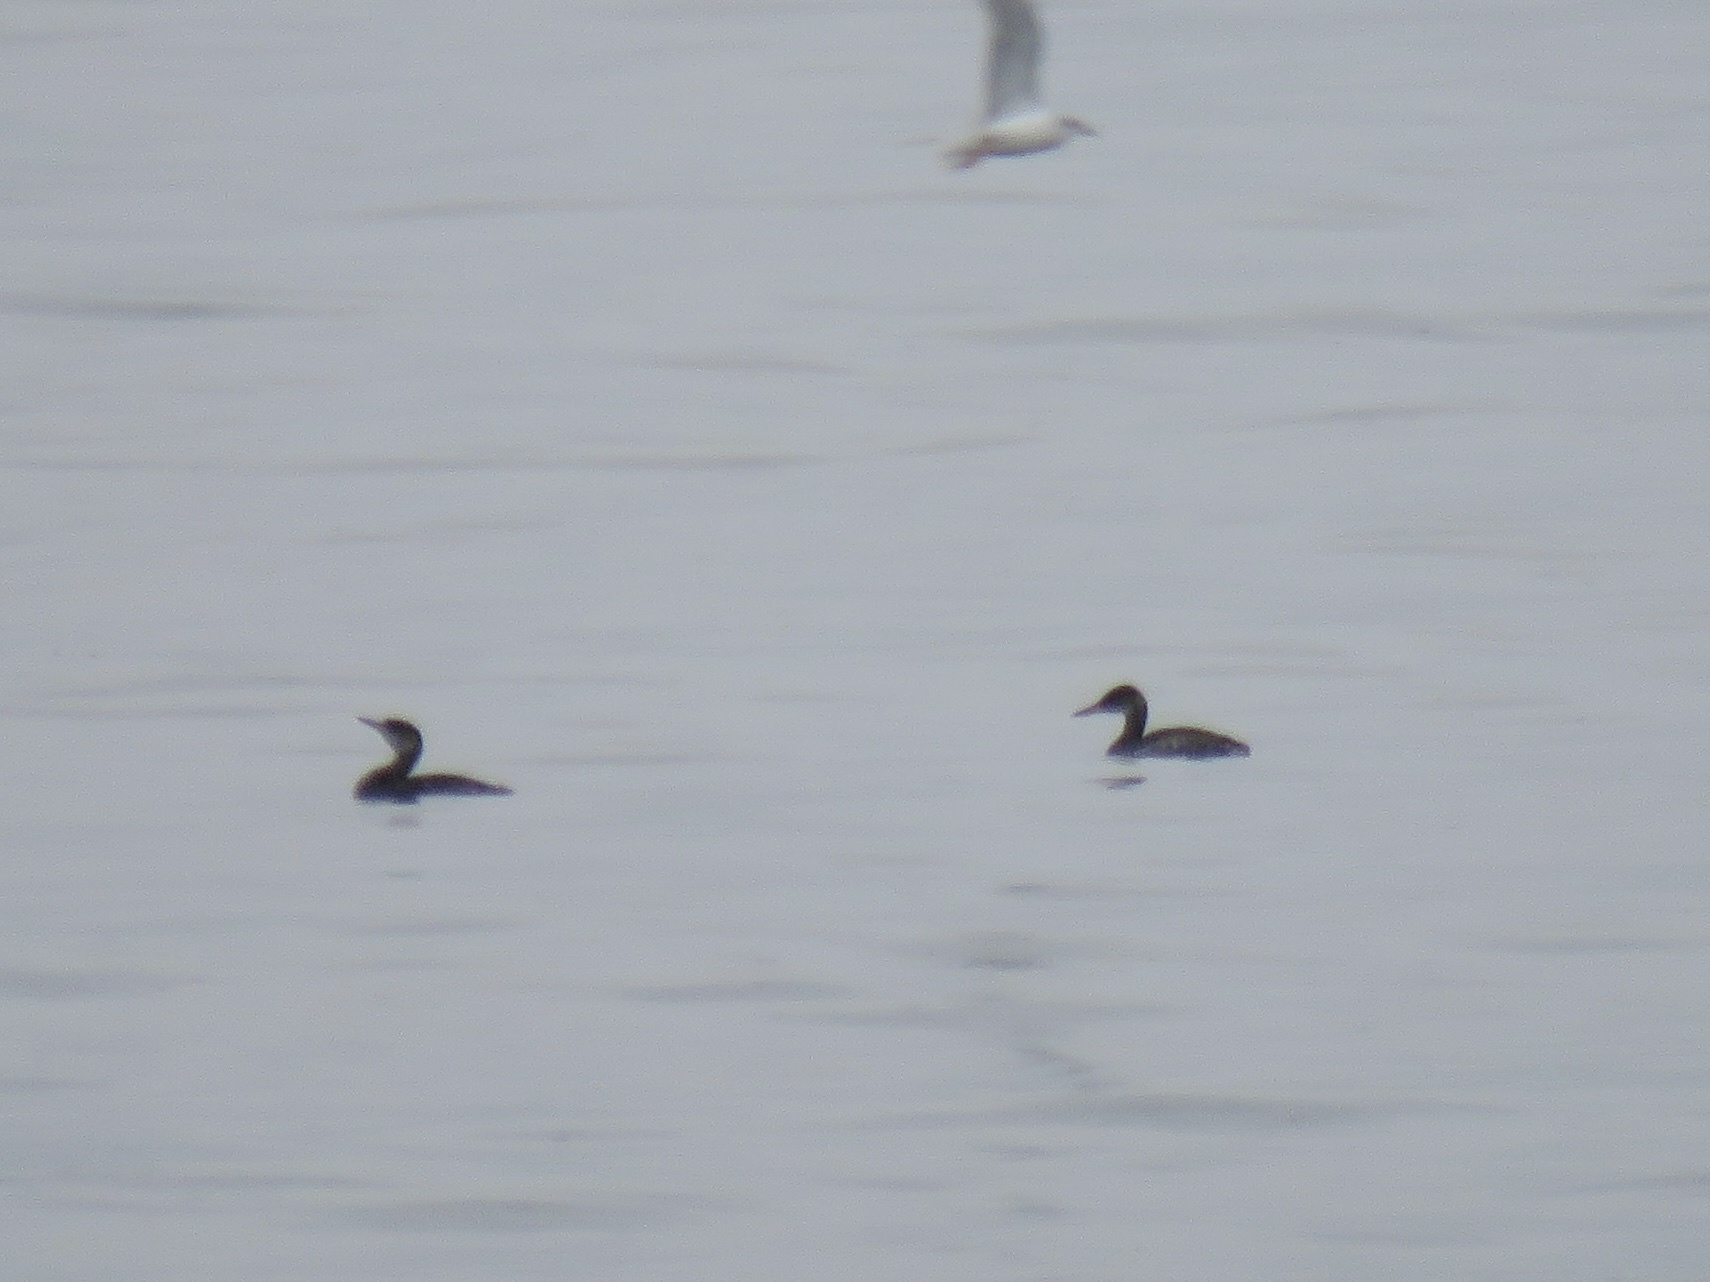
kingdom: Animalia
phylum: Chordata
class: Aves
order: Podicipediformes
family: Podicipedidae
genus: Podiceps
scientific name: Podiceps grisegena
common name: Red-necked grebe
